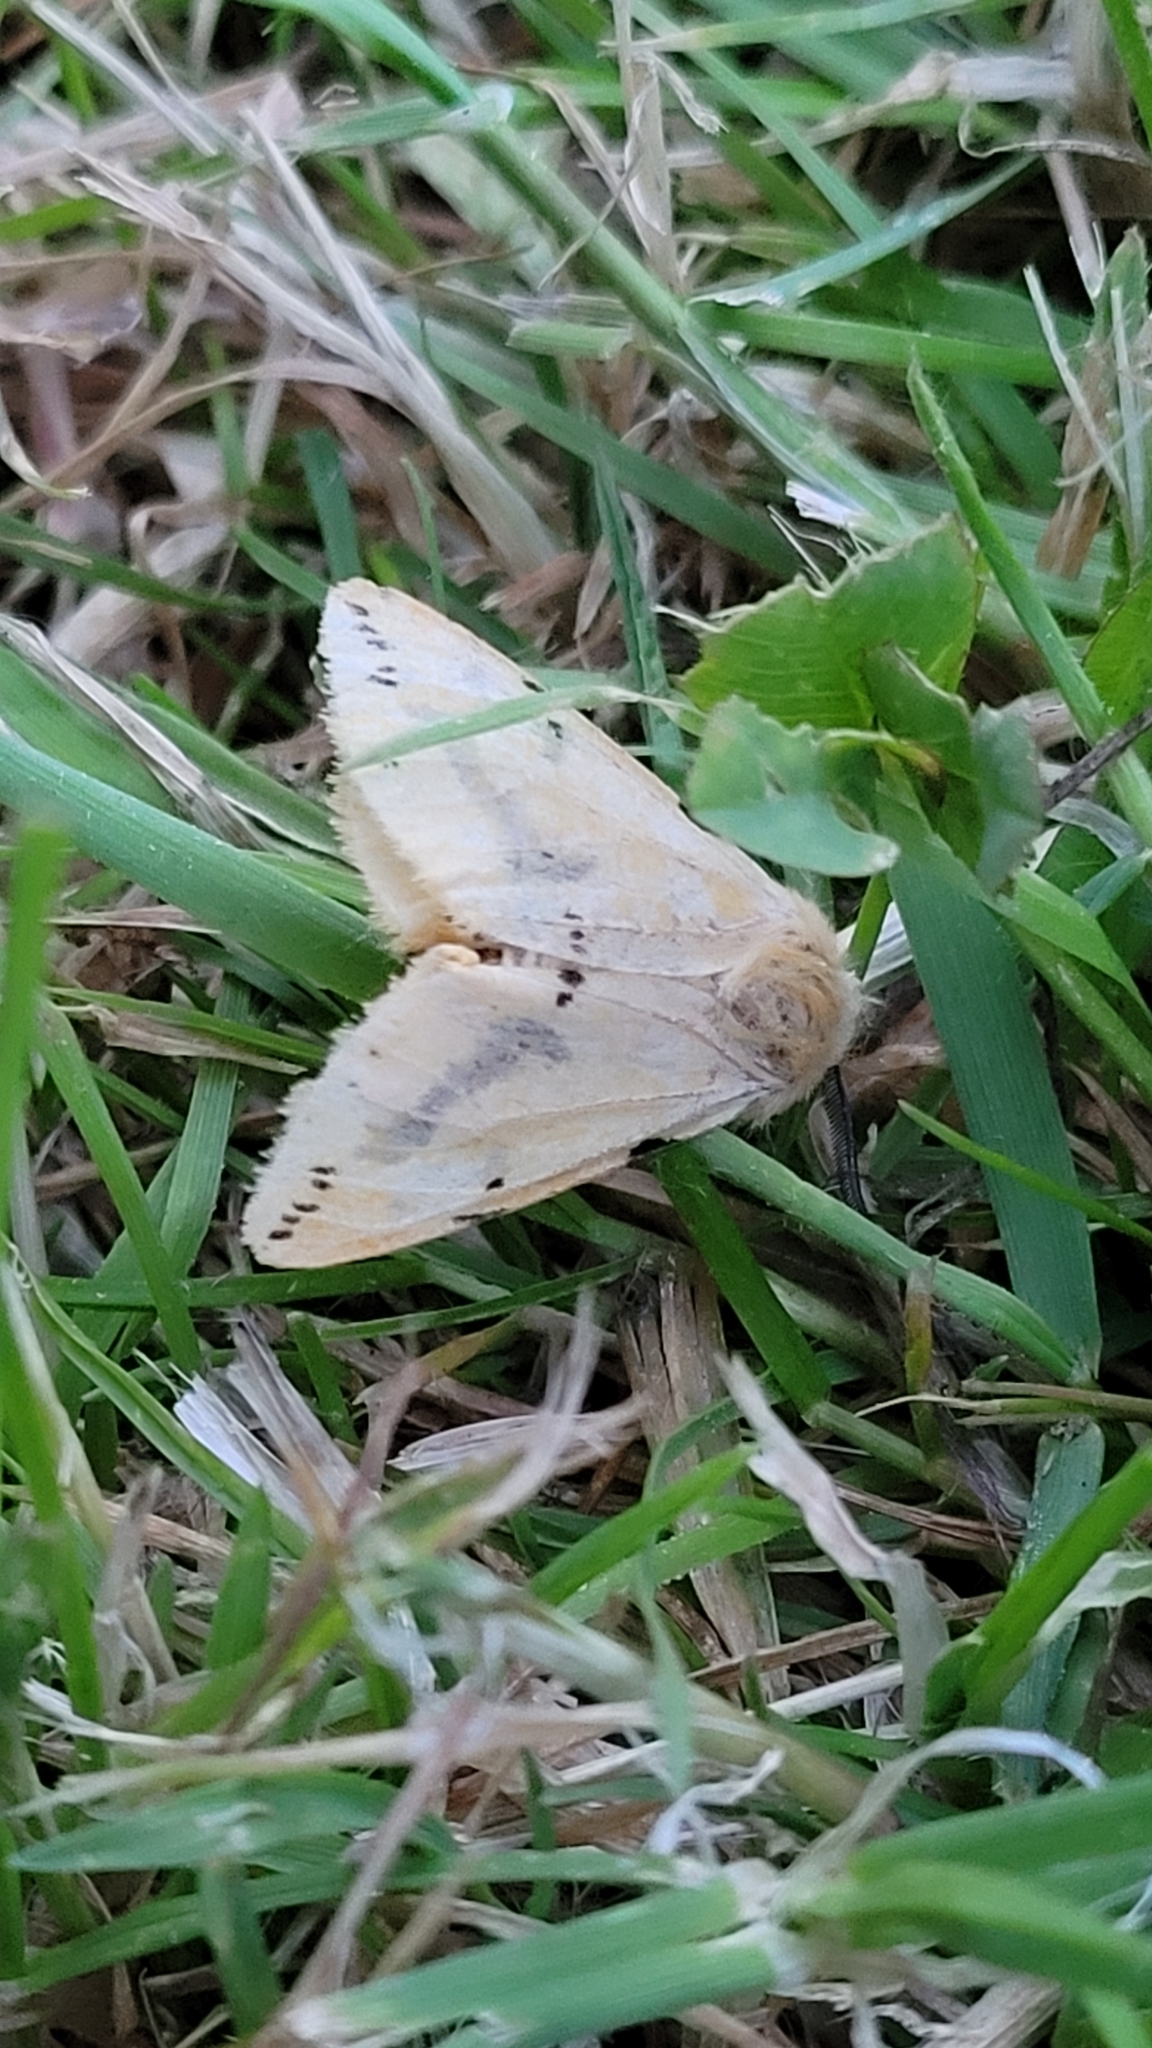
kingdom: Animalia
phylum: Arthropoda
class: Insecta
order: Lepidoptera
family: Erebidae
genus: Spilarctia
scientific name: Spilarctia lutea
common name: Buff ermine
